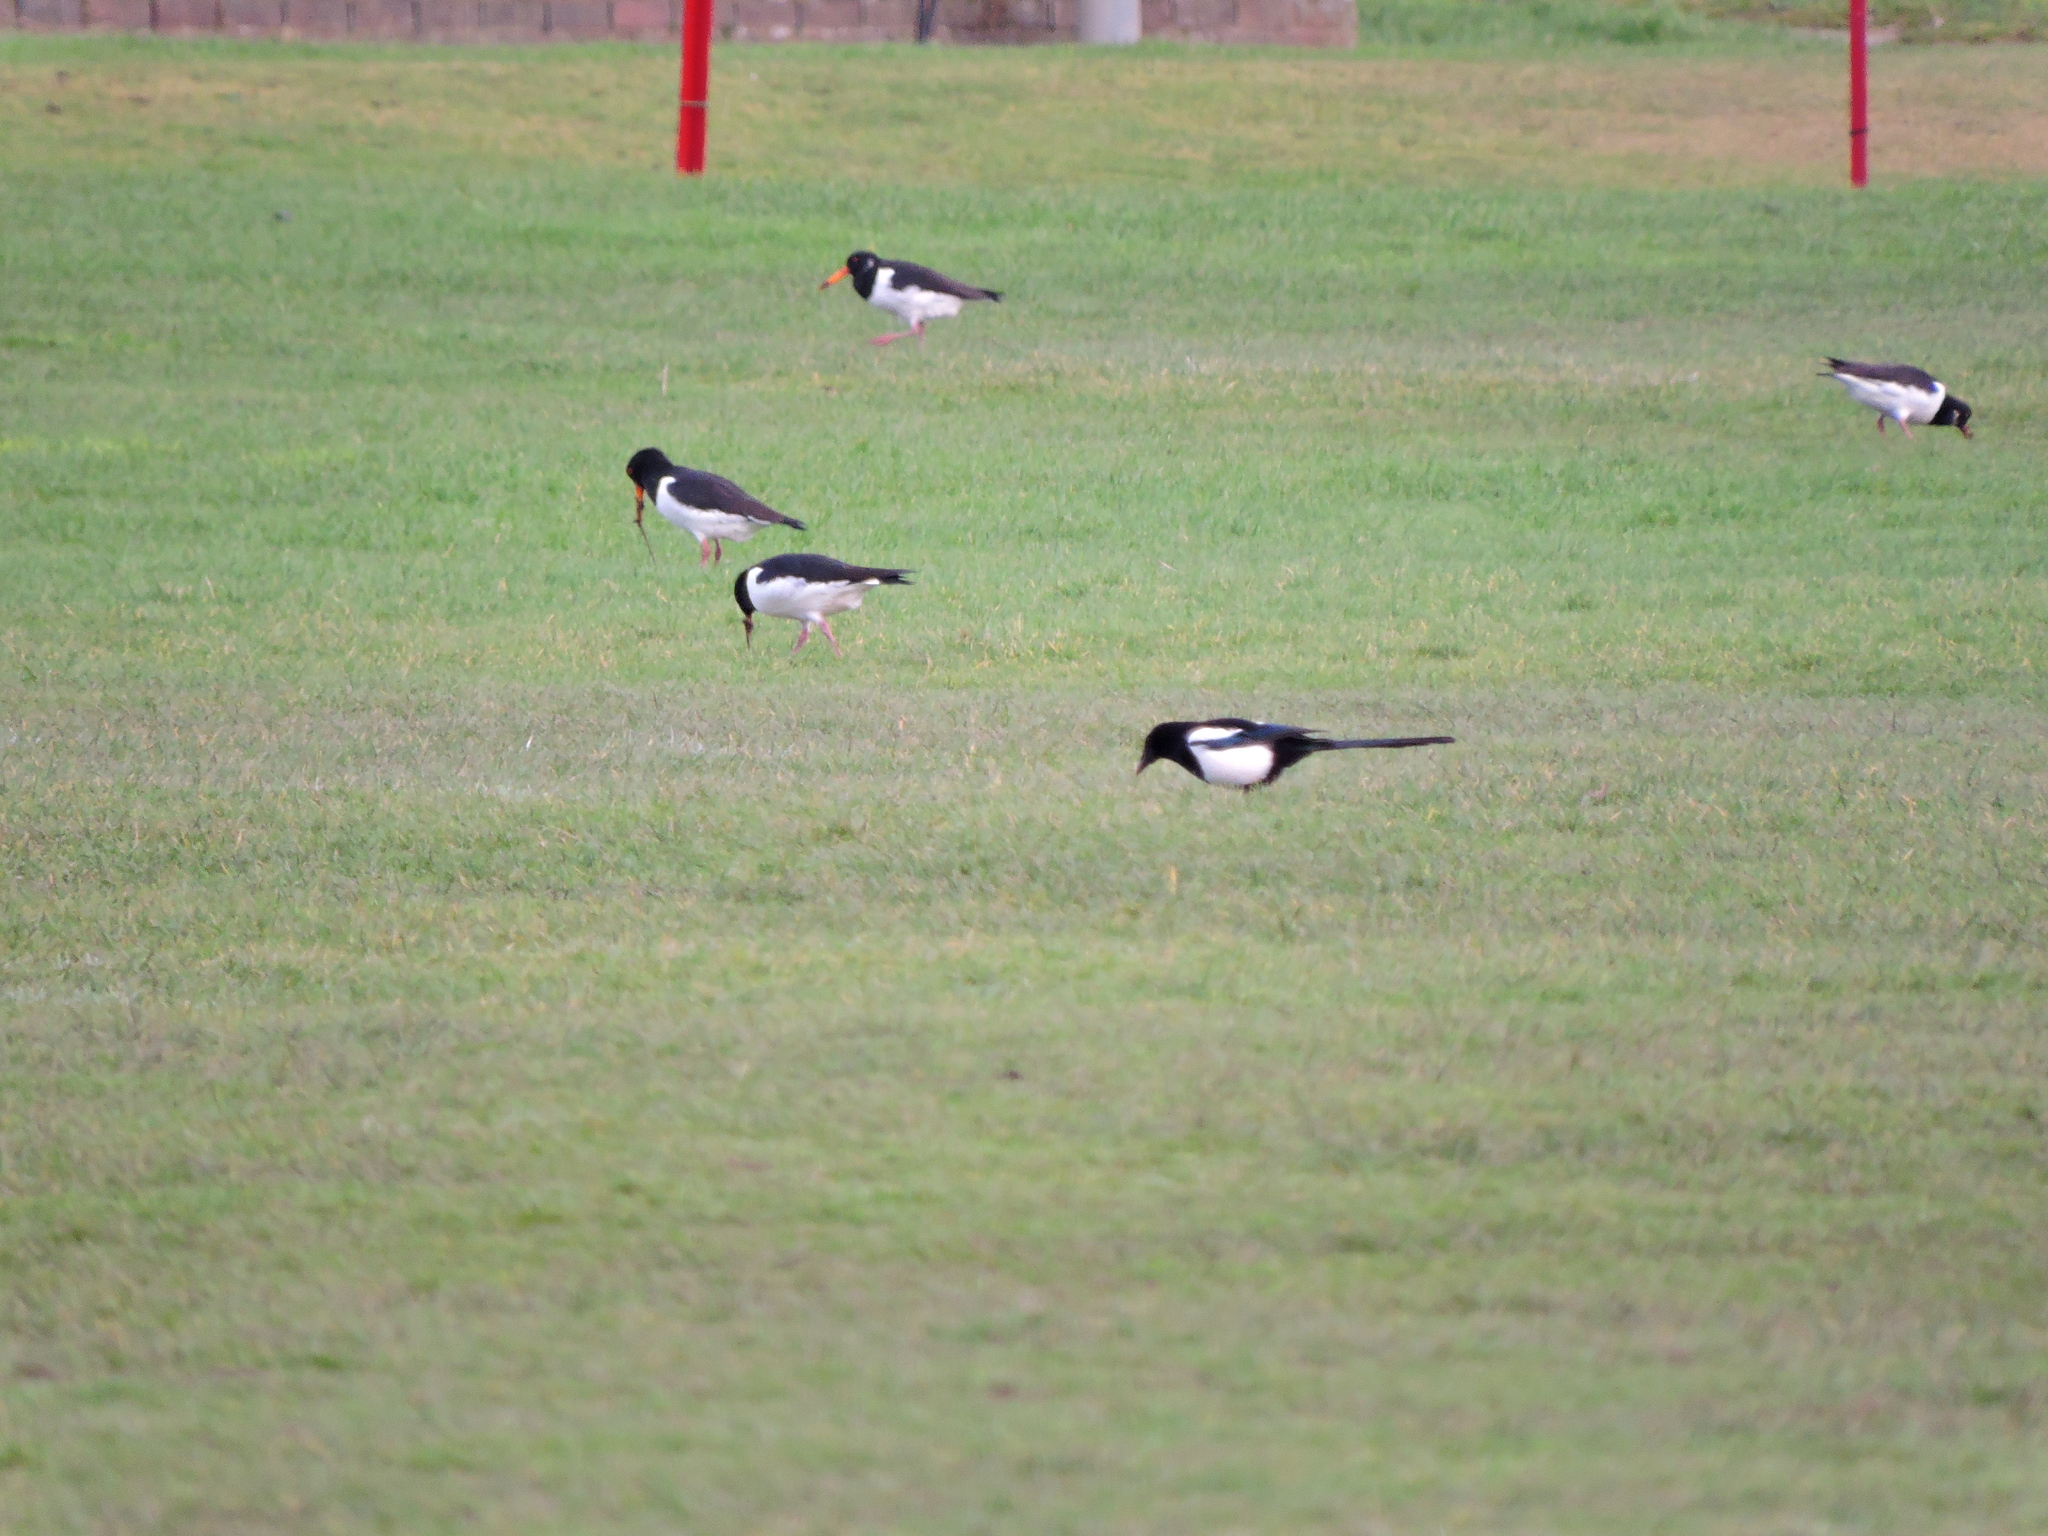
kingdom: Animalia
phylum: Chordata
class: Aves
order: Charadriiformes
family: Haematopodidae
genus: Haematopus
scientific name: Haematopus ostralegus
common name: Eurasian oystercatcher
